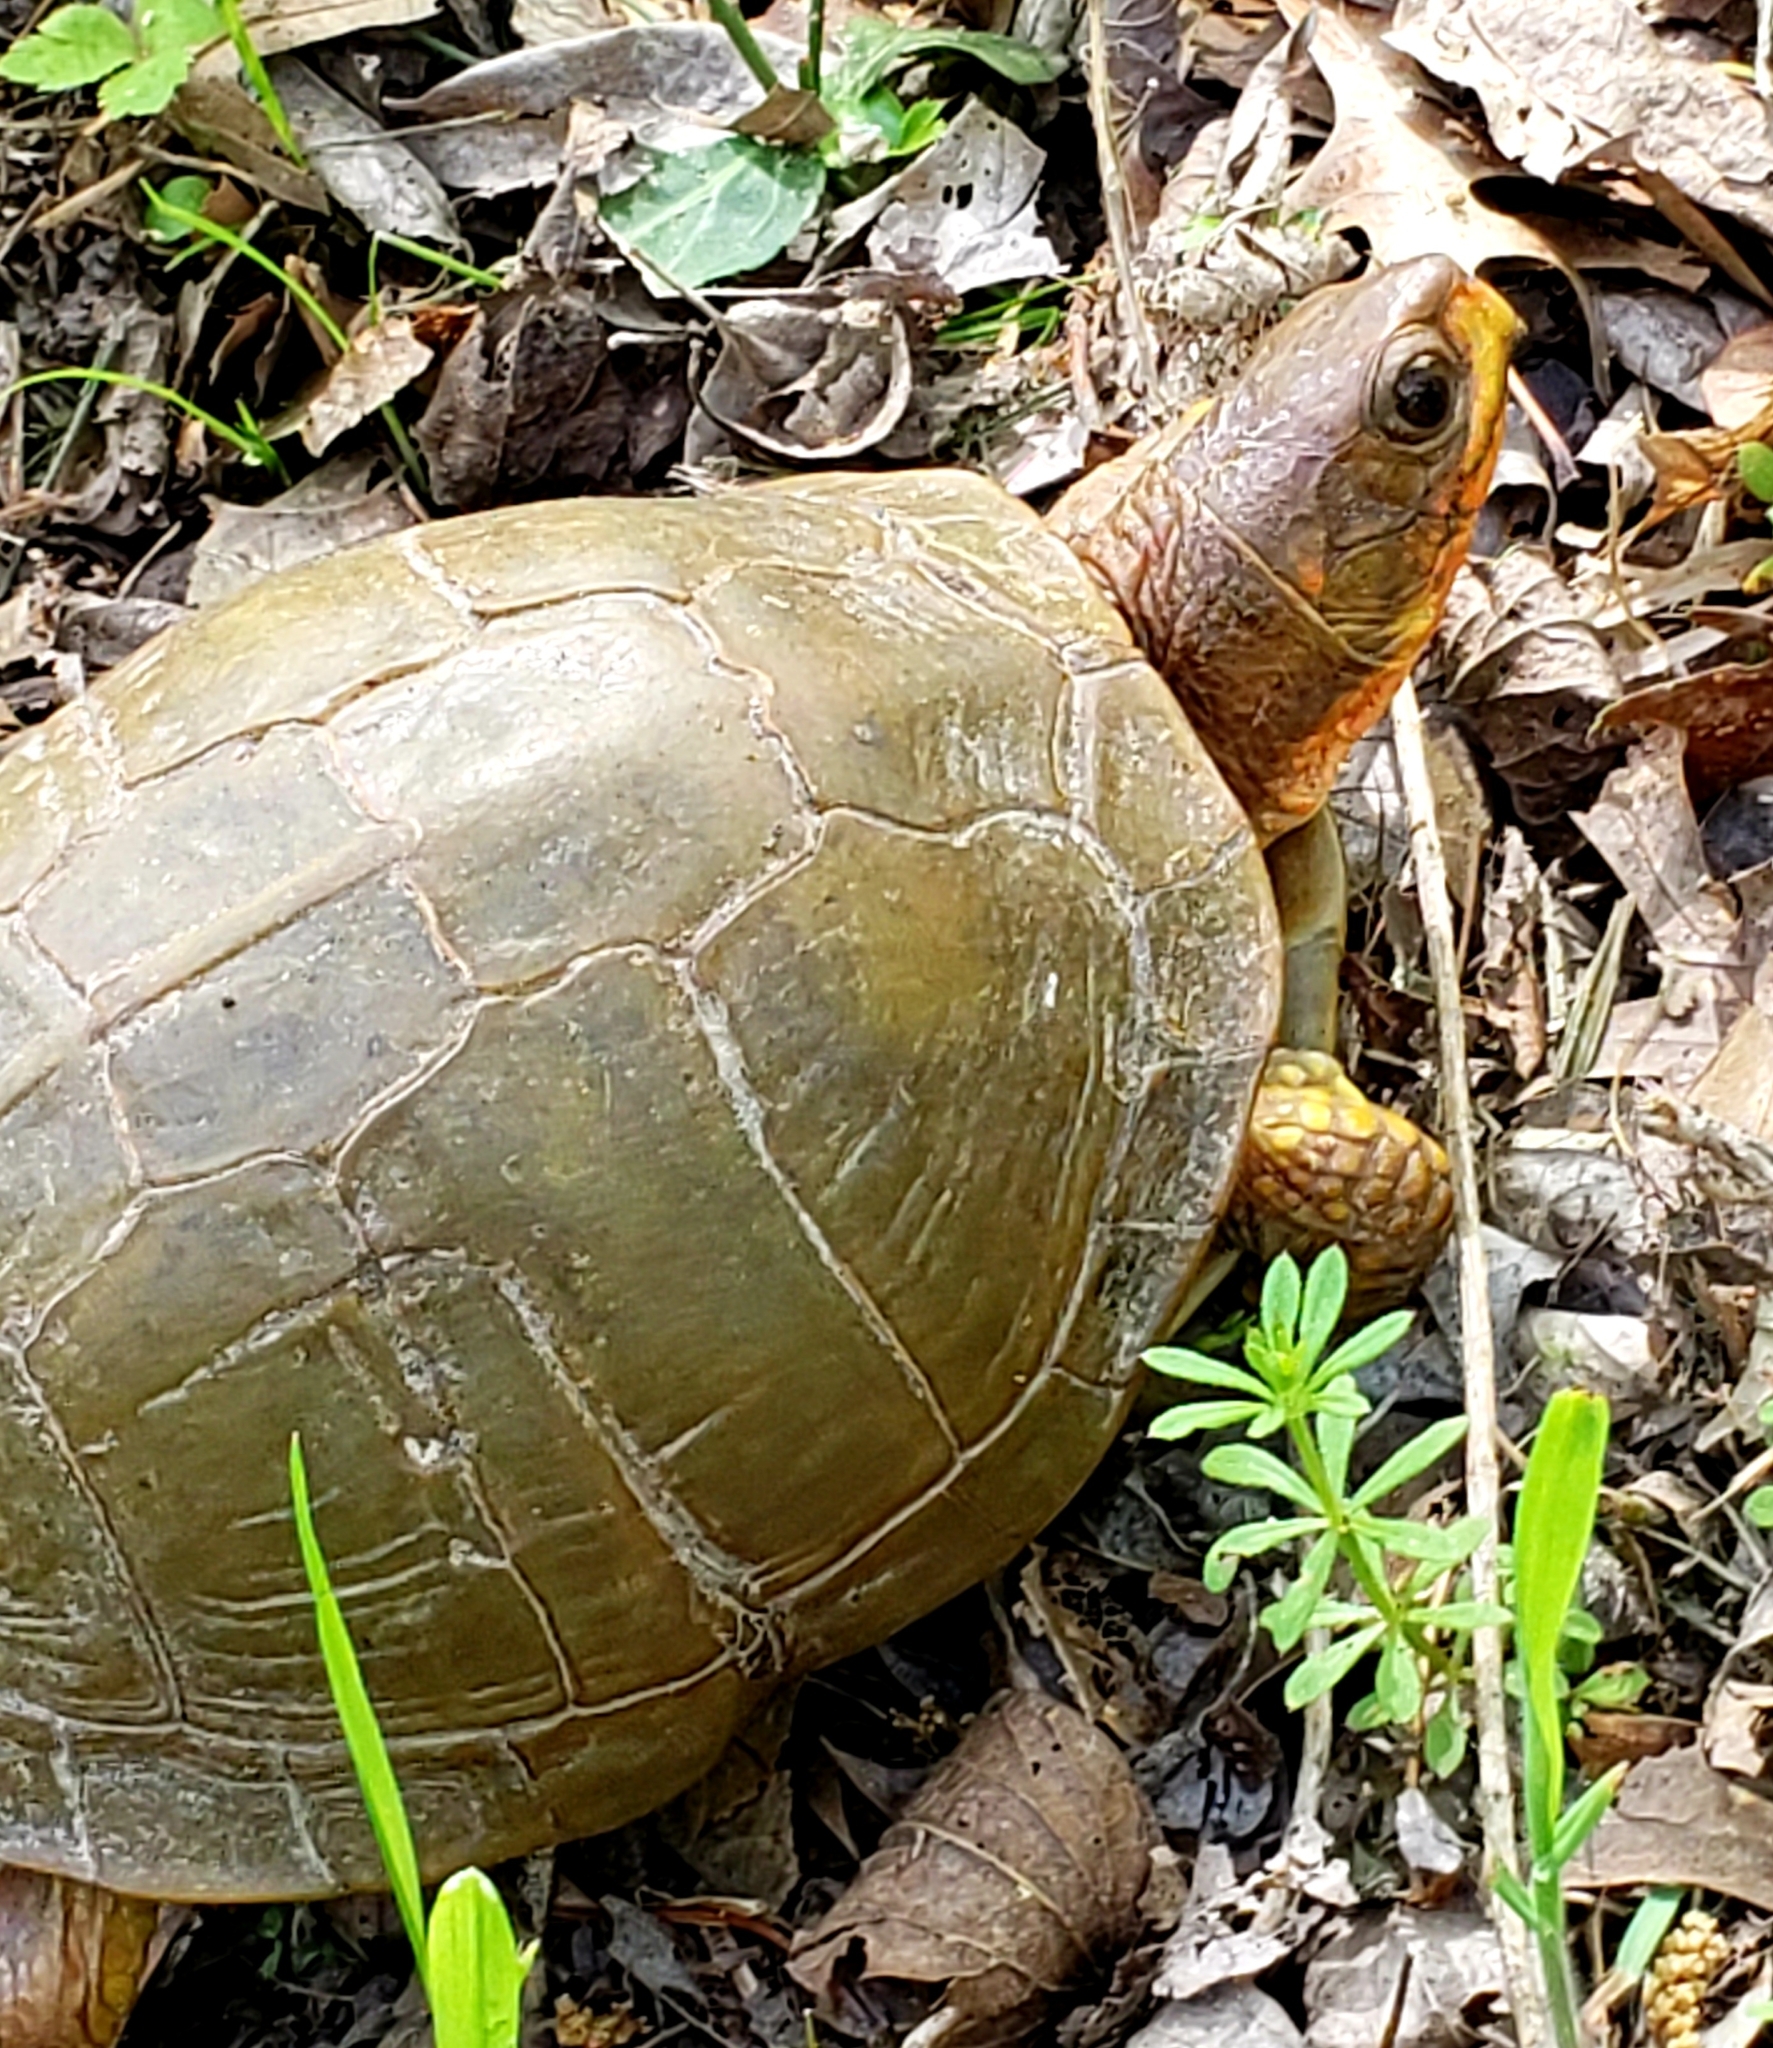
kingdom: Animalia
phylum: Chordata
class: Testudines
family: Emydidae
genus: Terrapene
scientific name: Terrapene carolina
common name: Common box turtle
